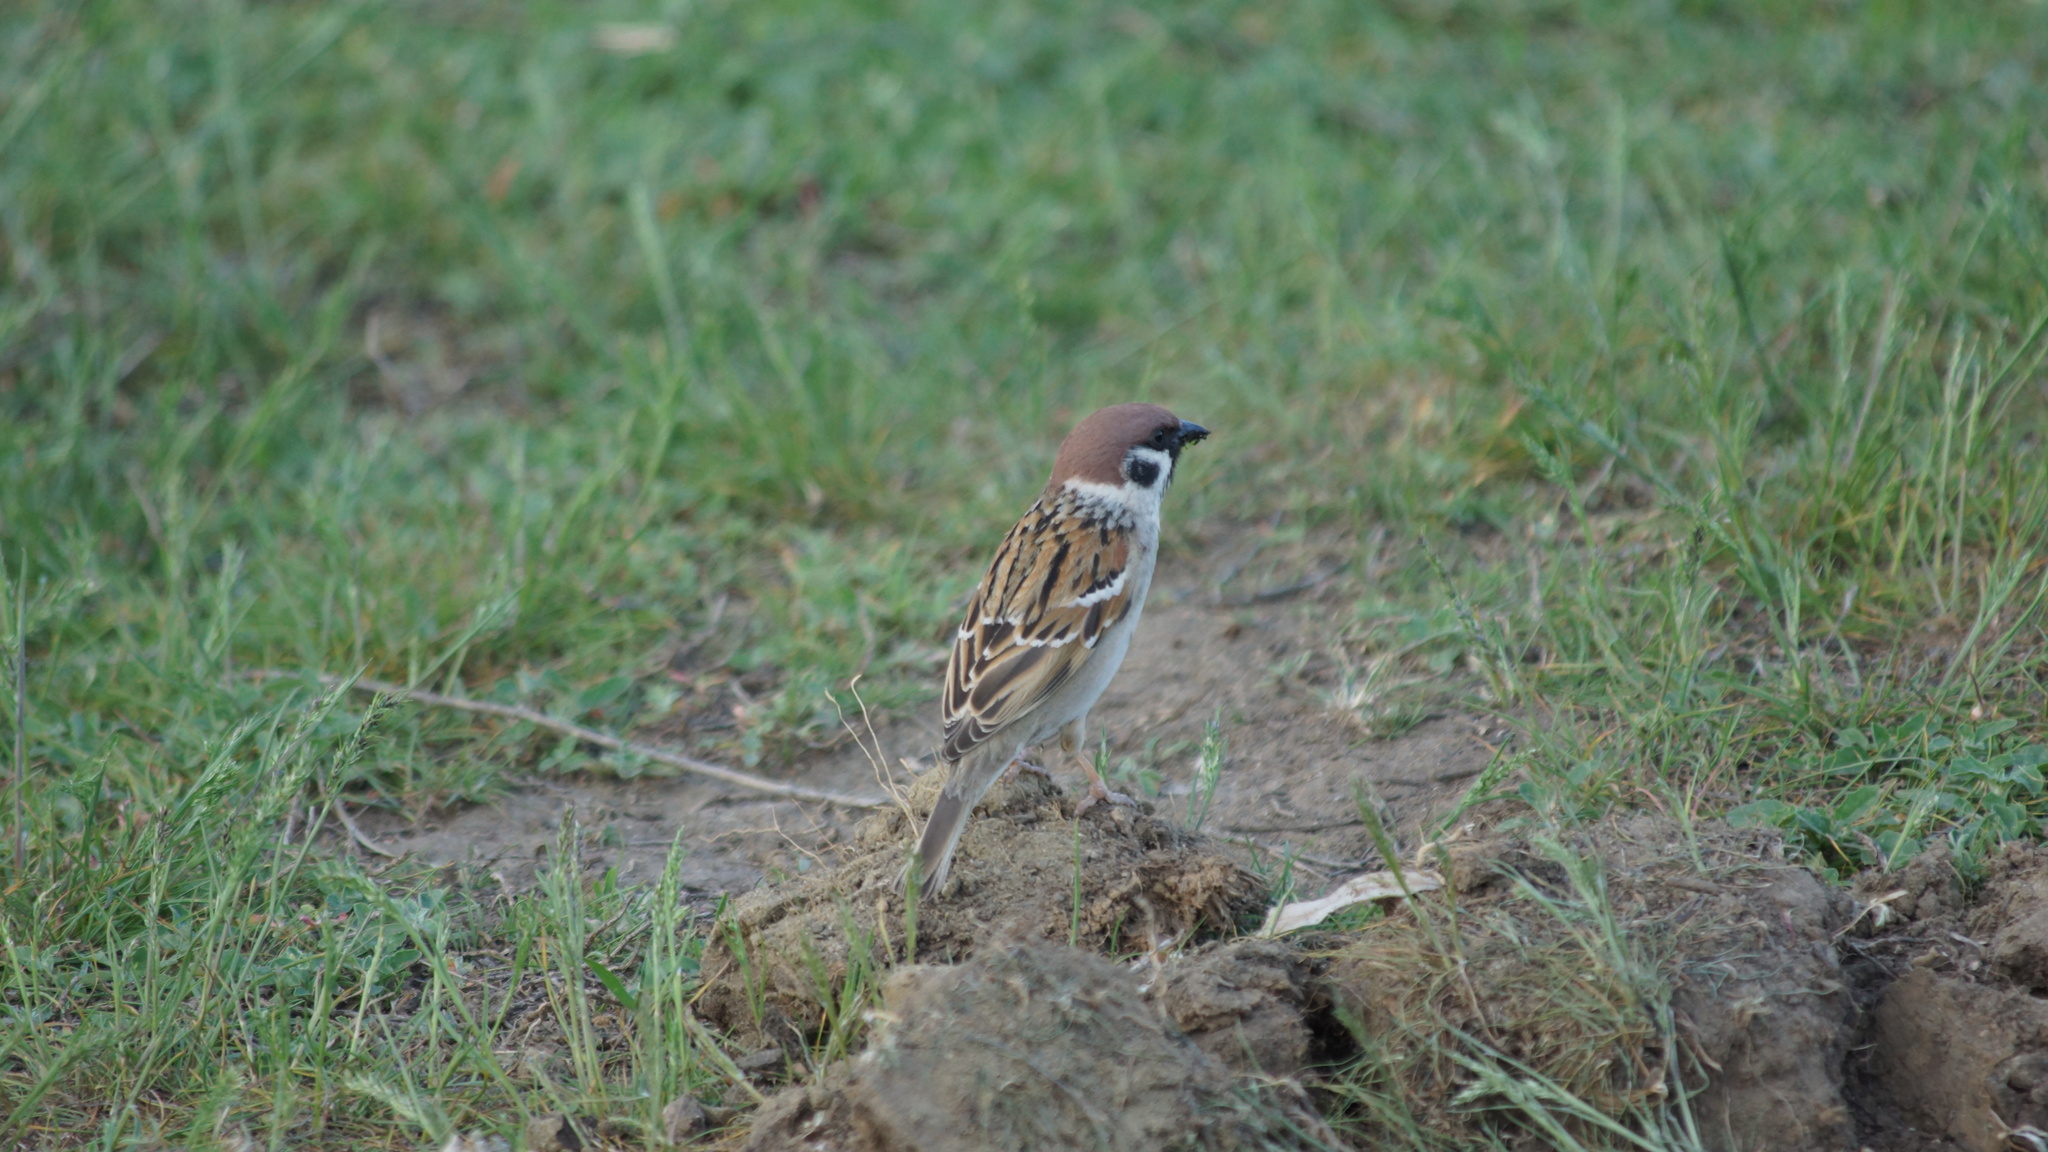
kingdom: Animalia
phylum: Chordata
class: Aves
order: Passeriformes
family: Passeridae
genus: Passer
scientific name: Passer montanus
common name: Eurasian tree sparrow
